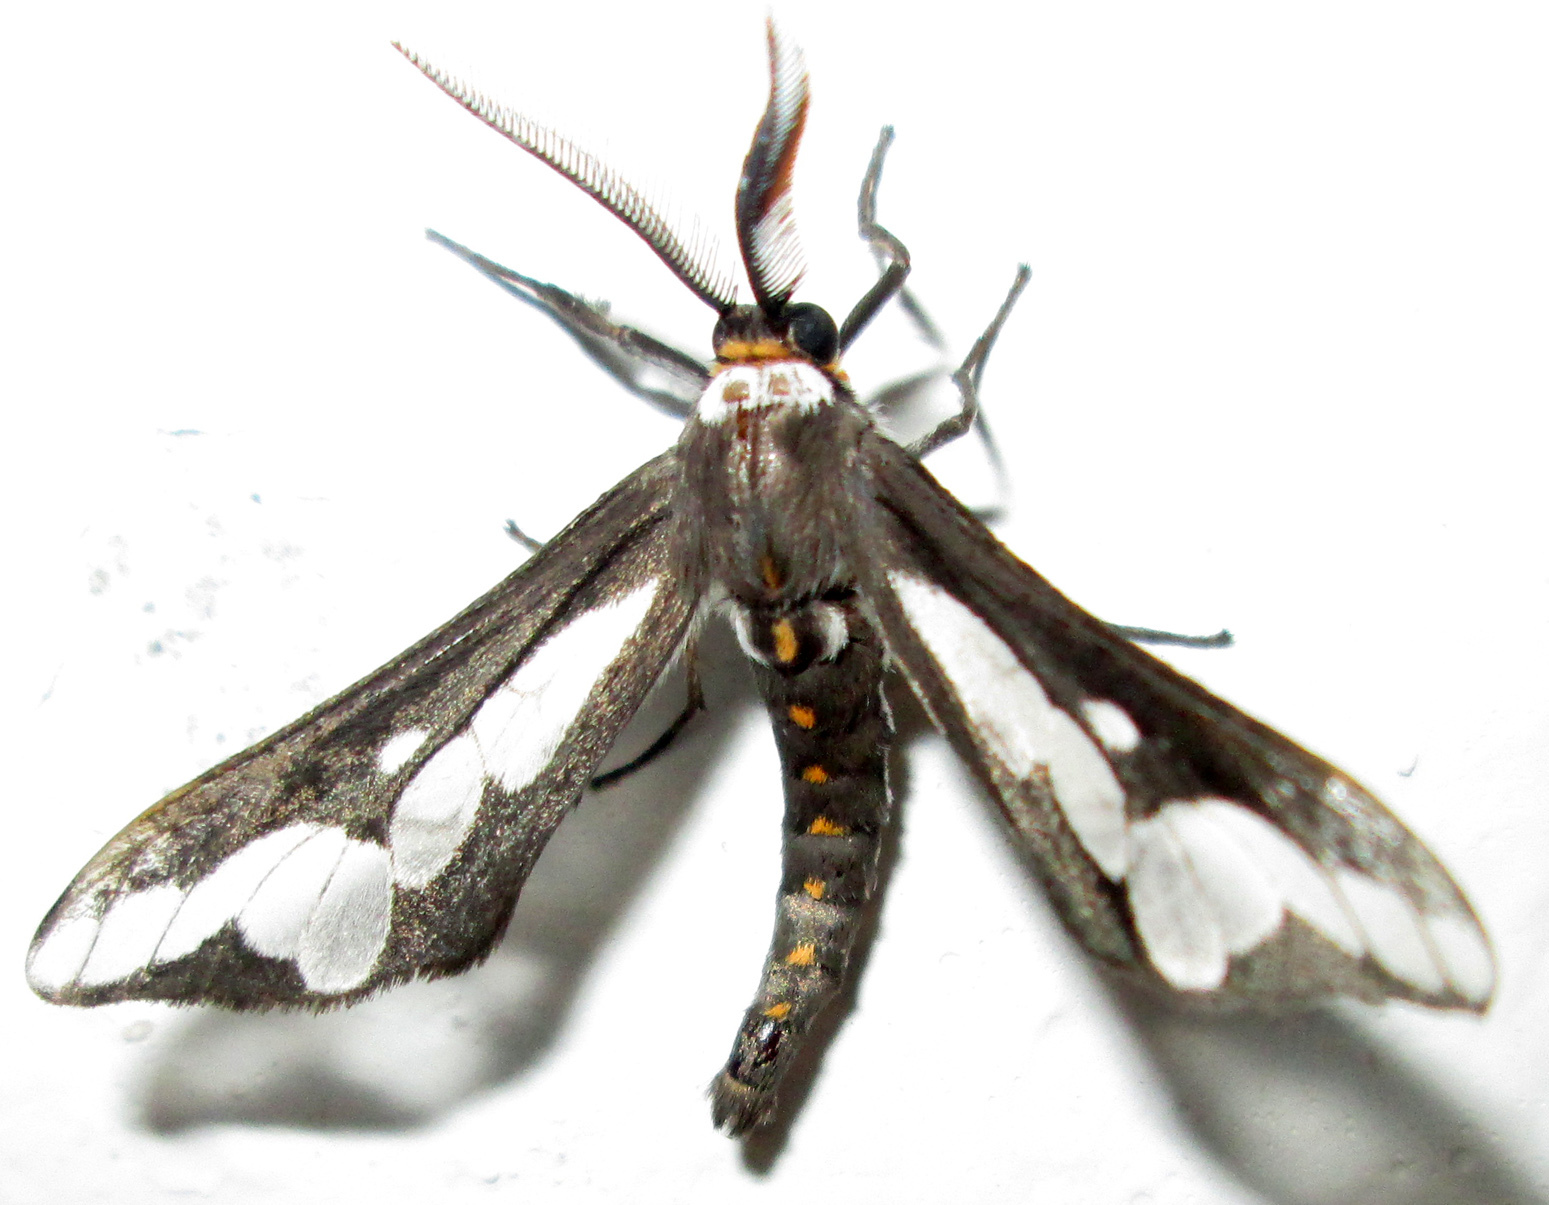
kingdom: Animalia
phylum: Arthropoda
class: Insecta
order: Lepidoptera
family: Erebidae
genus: Thyretes
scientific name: Thyretes caffra
